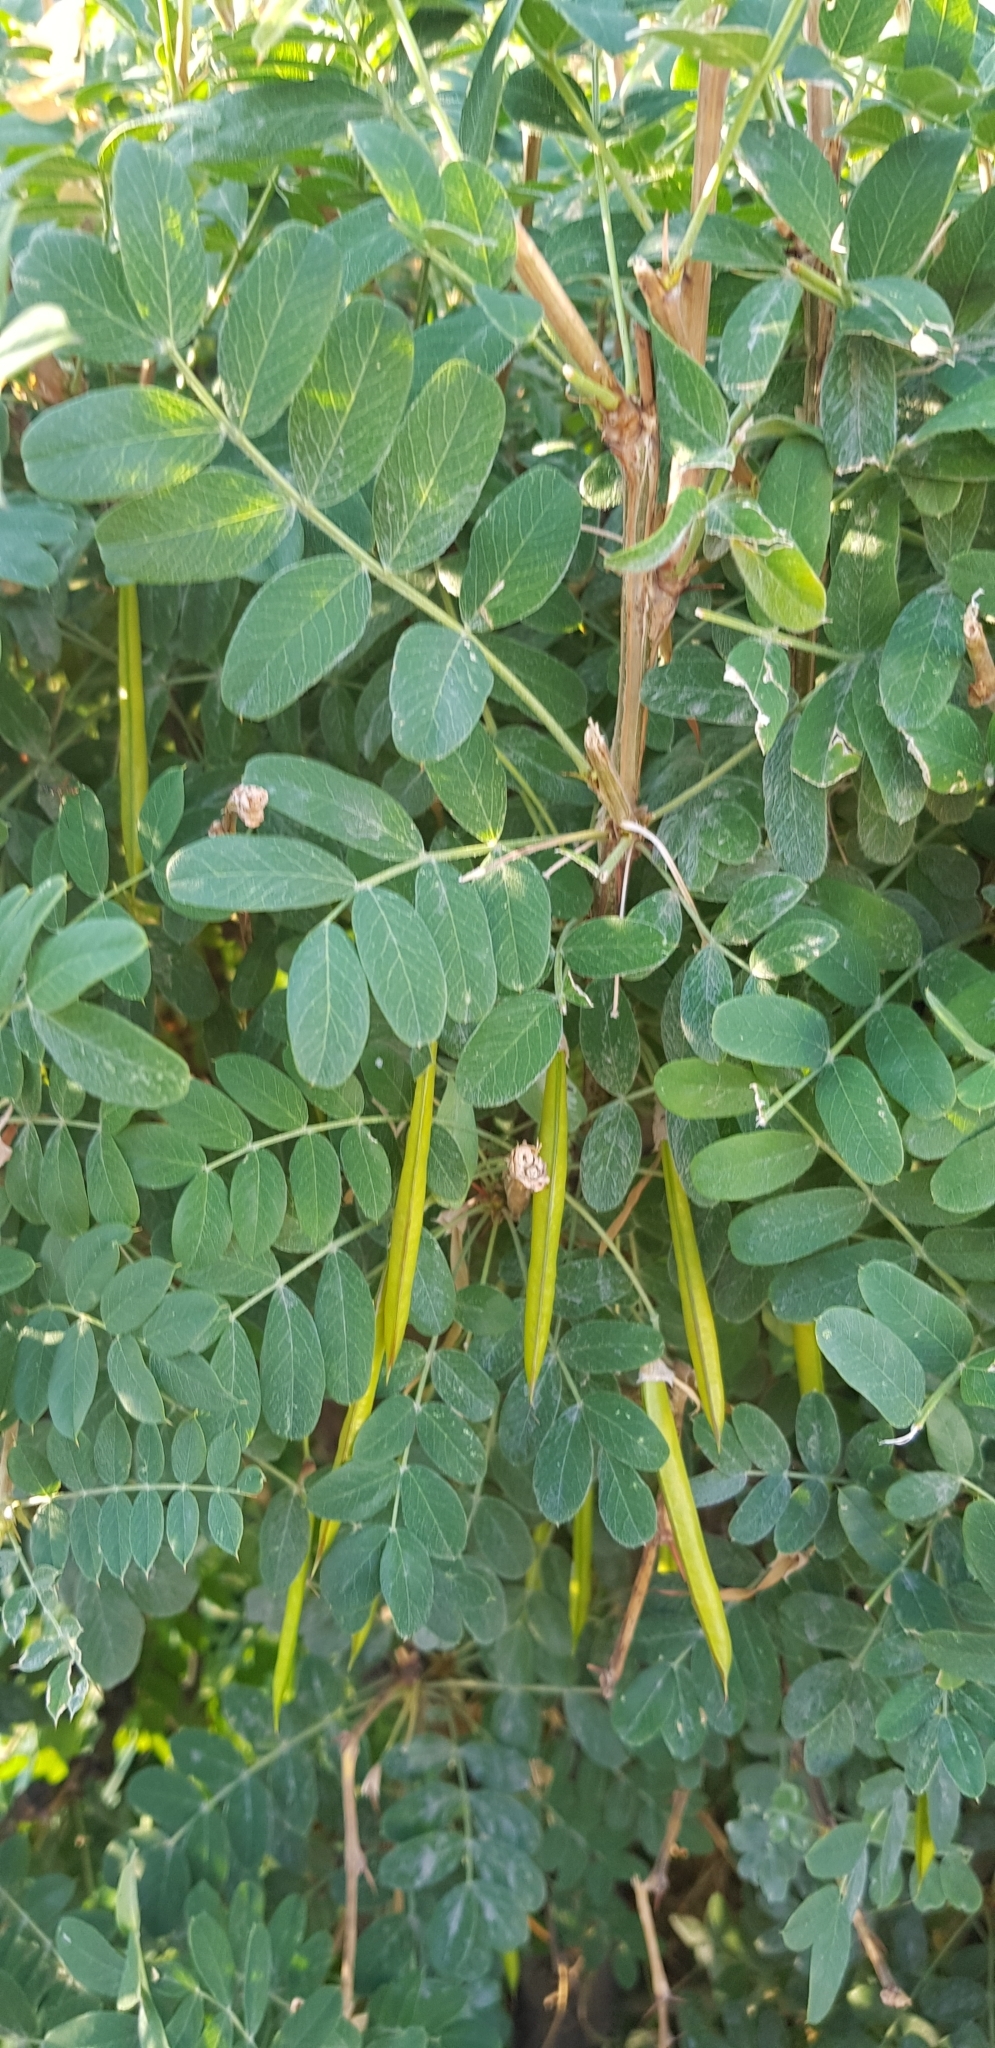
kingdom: Plantae
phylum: Tracheophyta
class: Magnoliopsida
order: Fabales
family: Fabaceae
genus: Caragana
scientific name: Caragana arborescens
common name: Siberian peashrub
